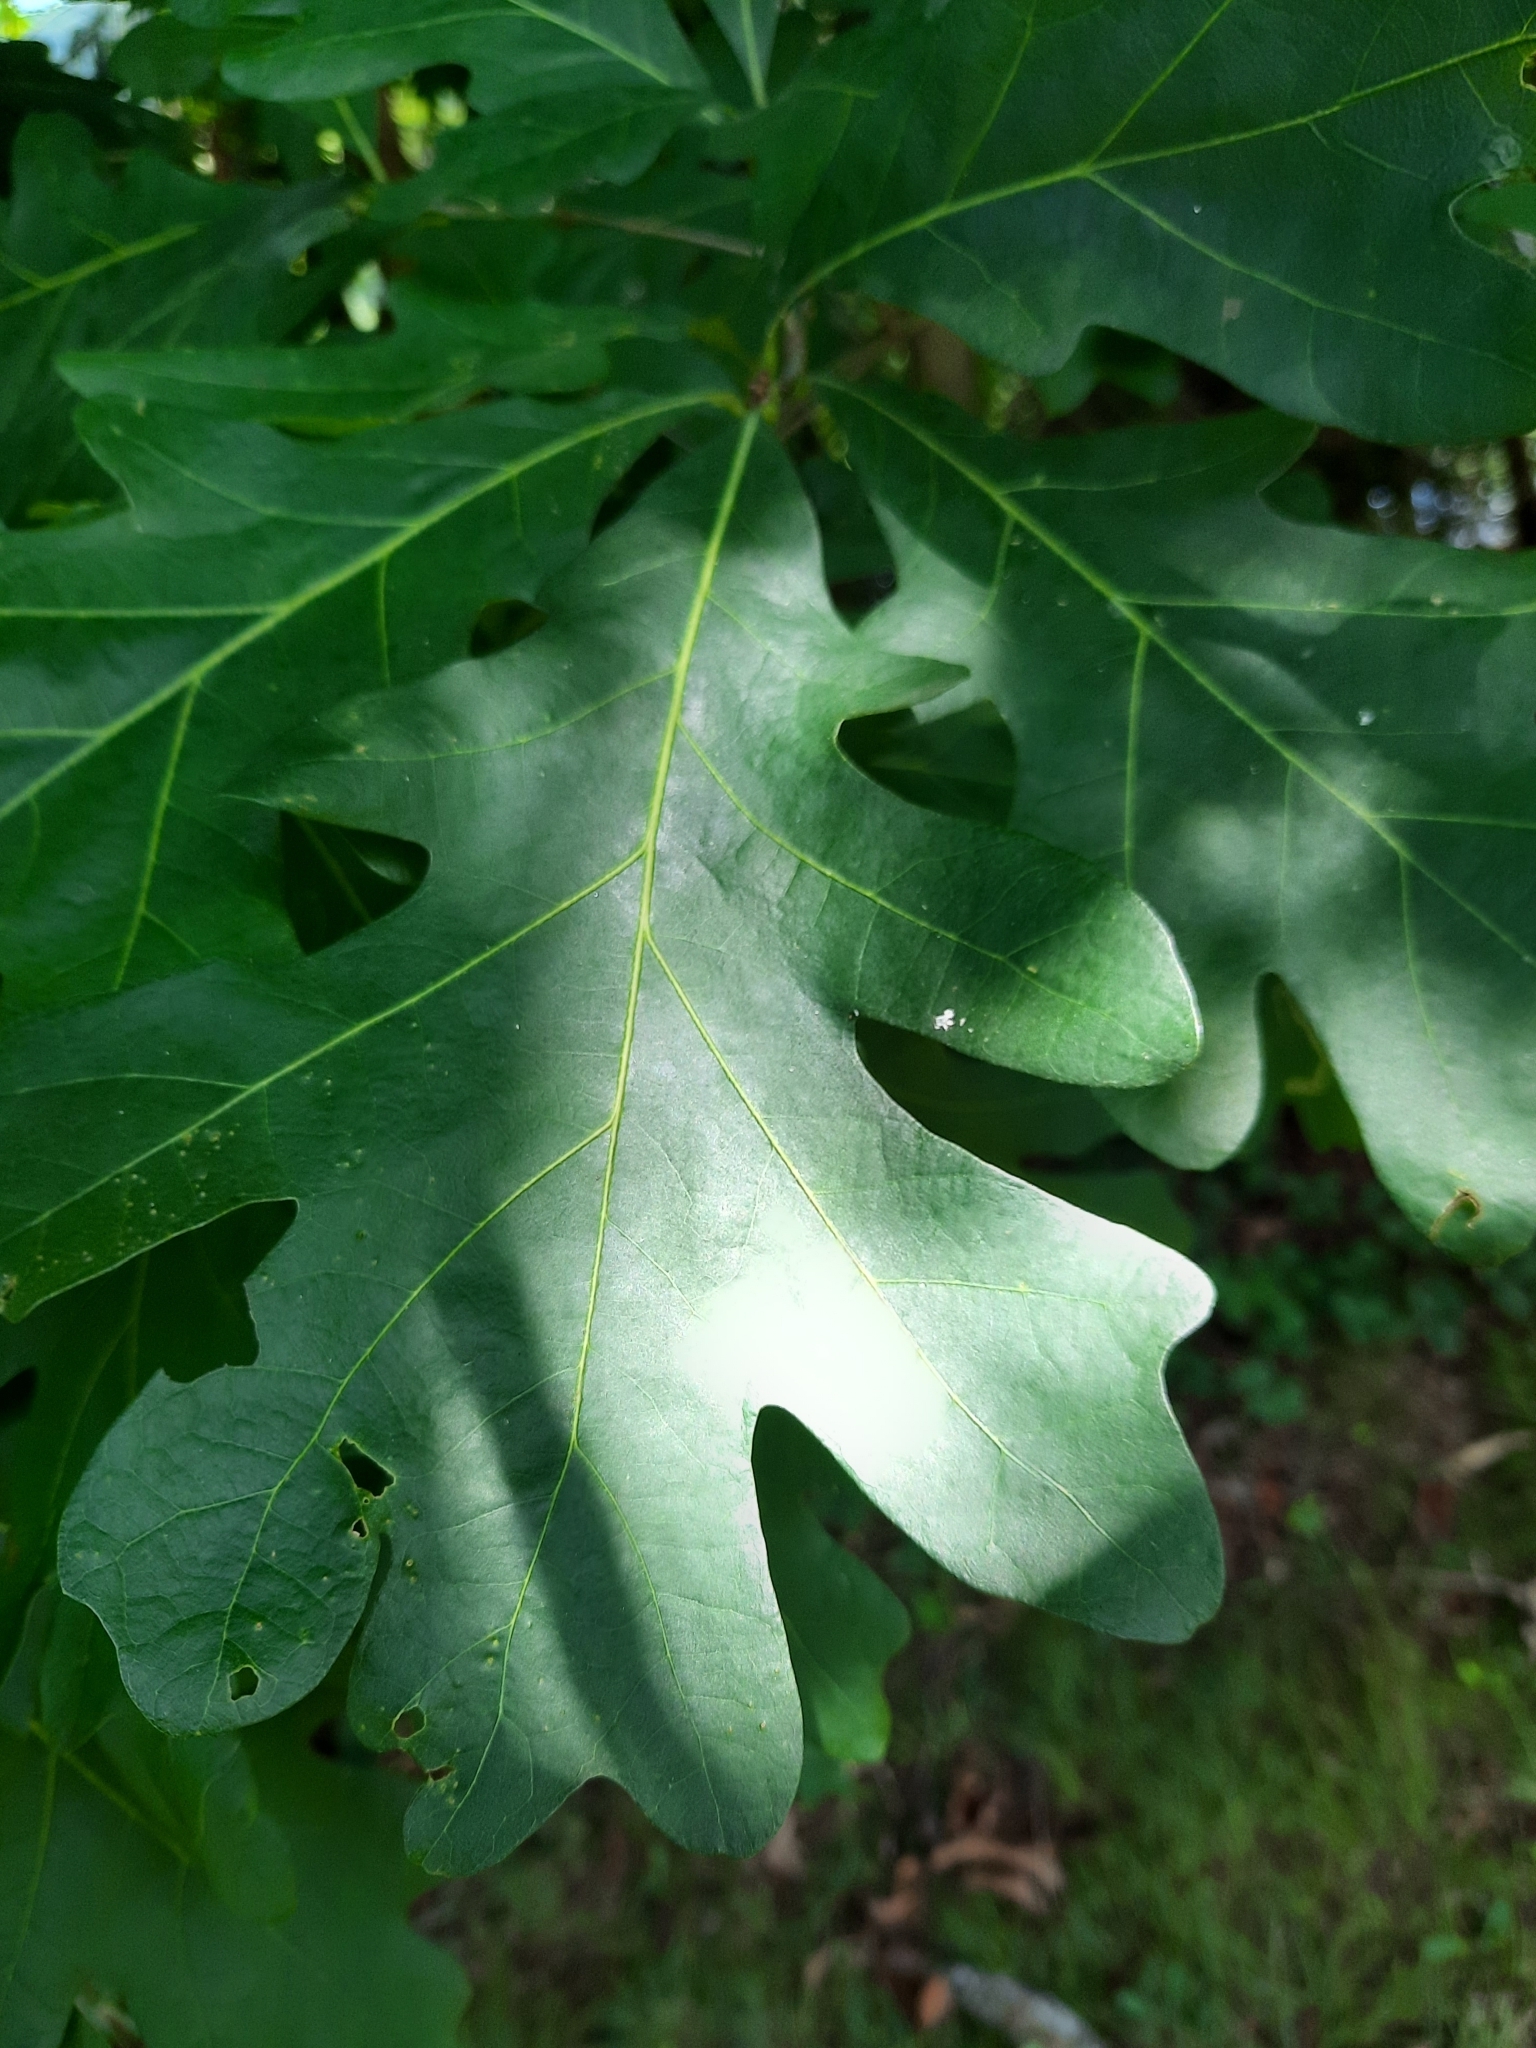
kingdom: Plantae
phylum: Tracheophyta
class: Magnoliopsida
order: Fagales
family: Fagaceae
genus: Quercus
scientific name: Quercus alba
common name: White oak
